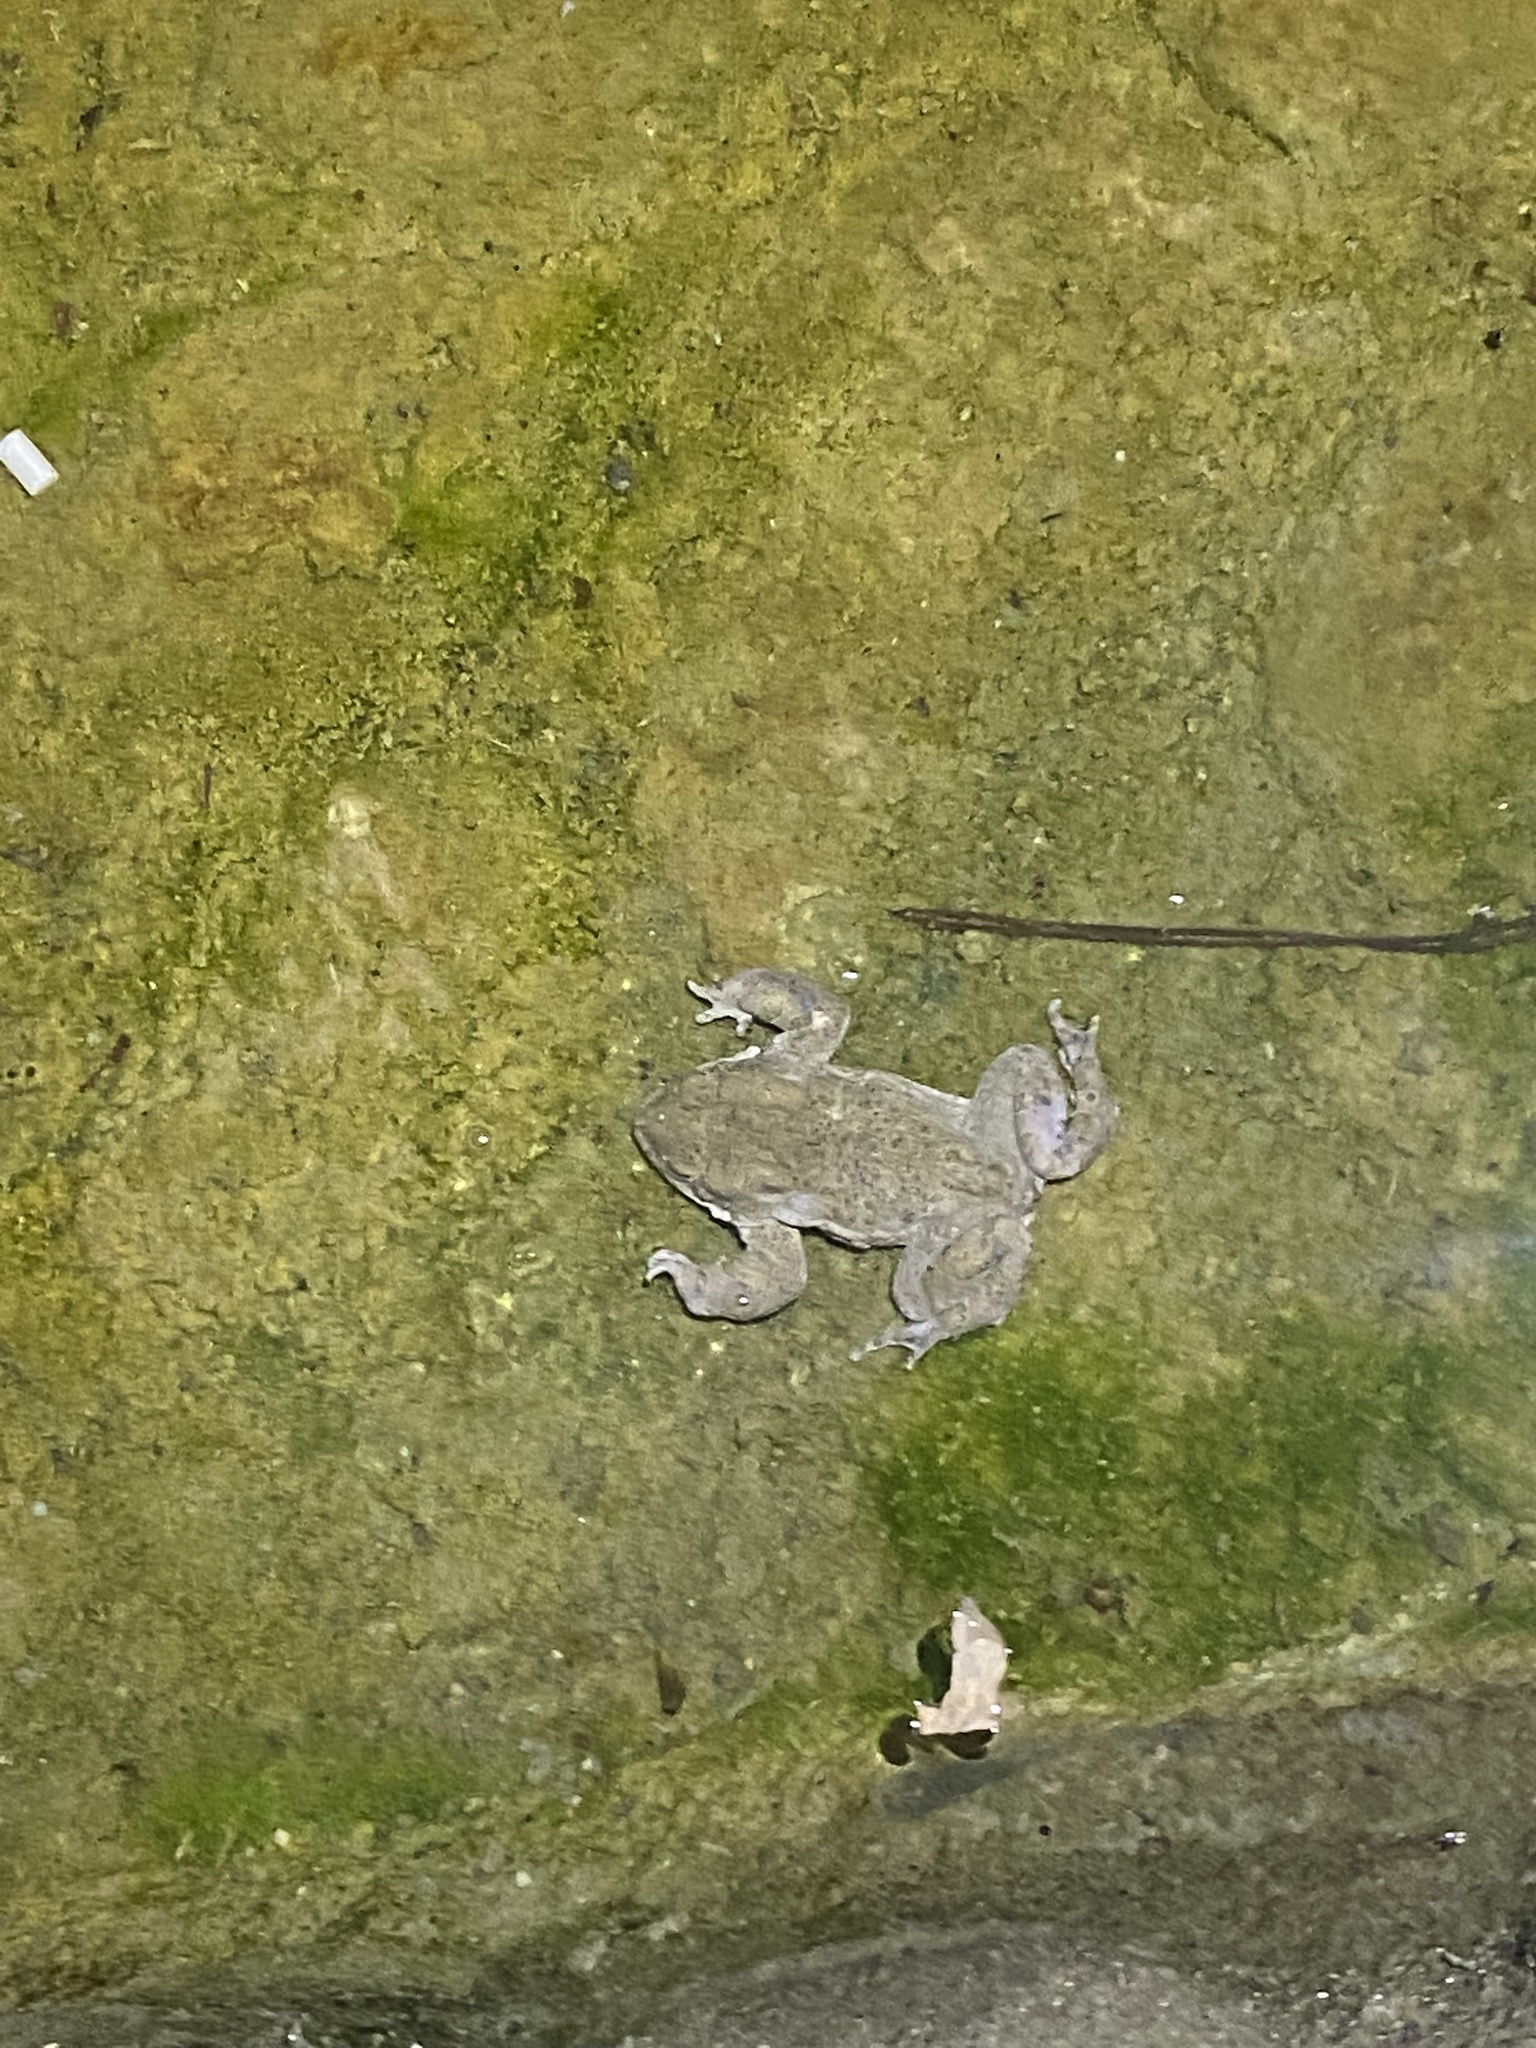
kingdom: Animalia
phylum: Chordata
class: Amphibia
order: Anura
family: Bufonidae
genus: Bufotes
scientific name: Bufotes viridis
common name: European green toad
